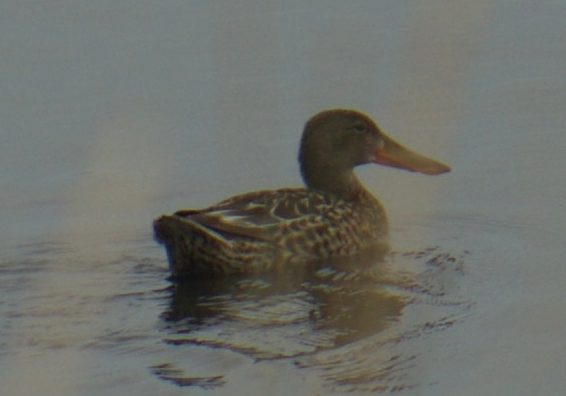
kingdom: Animalia
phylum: Chordata
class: Aves
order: Anseriformes
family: Anatidae
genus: Spatula
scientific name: Spatula clypeata
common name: Northern shoveler
